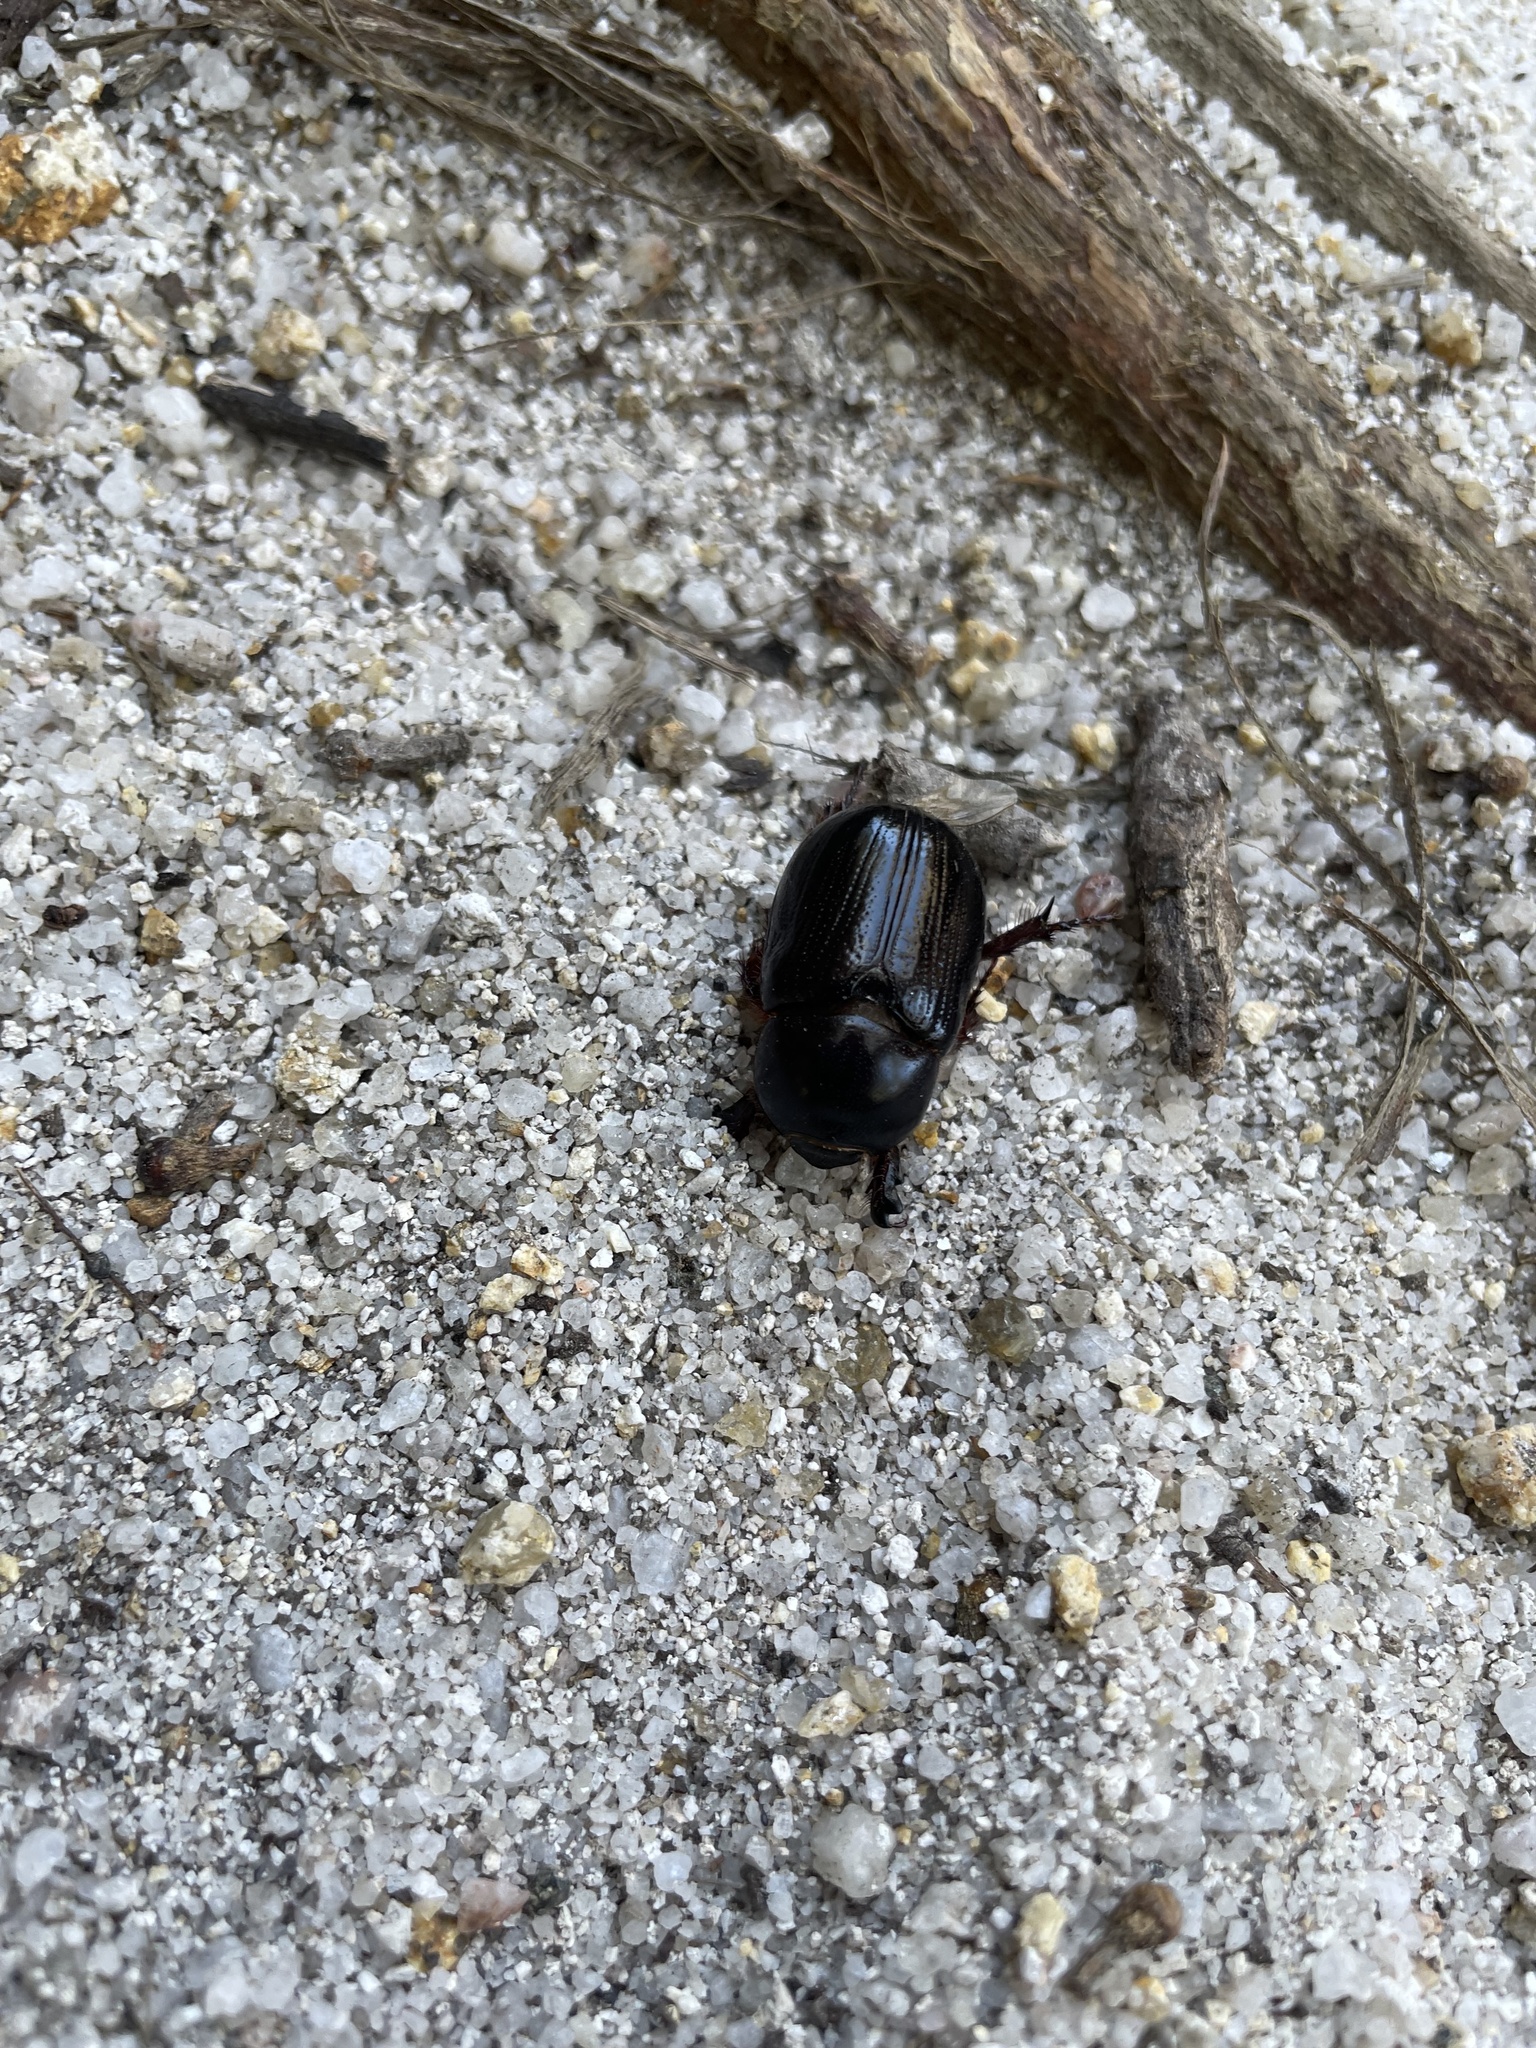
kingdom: Animalia
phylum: Arthropoda
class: Insecta
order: Coleoptera
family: Scarabaeidae
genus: Dasygnathus
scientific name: Dasygnathus trituberculatus
